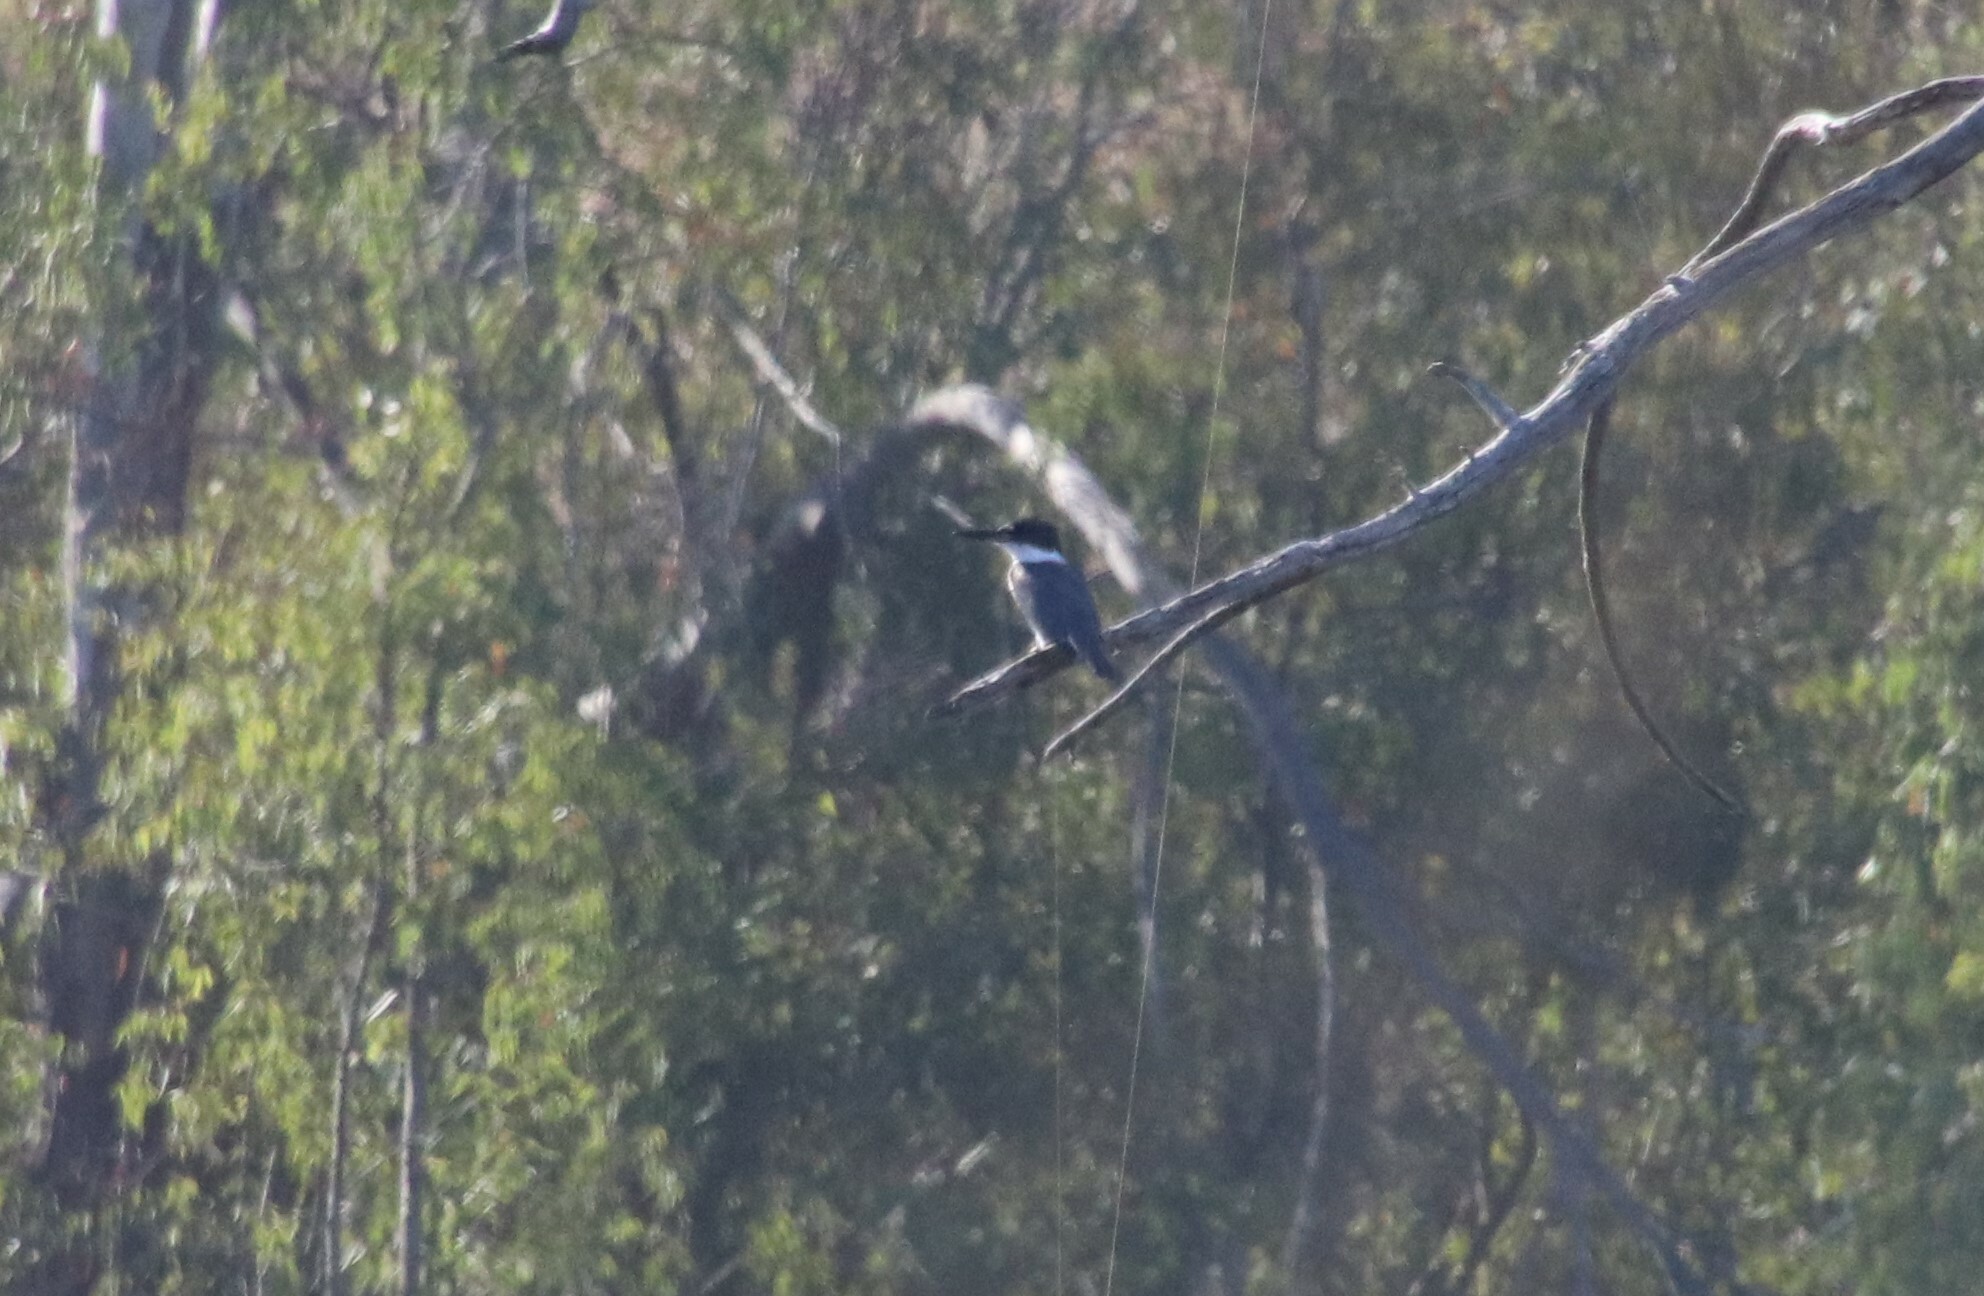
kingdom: Animalia
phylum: Chordata
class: Aves
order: Coraciiformes
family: Alcedinidae
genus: Megaceryle
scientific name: Megaceryle alcyon
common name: Belted kingfisher
